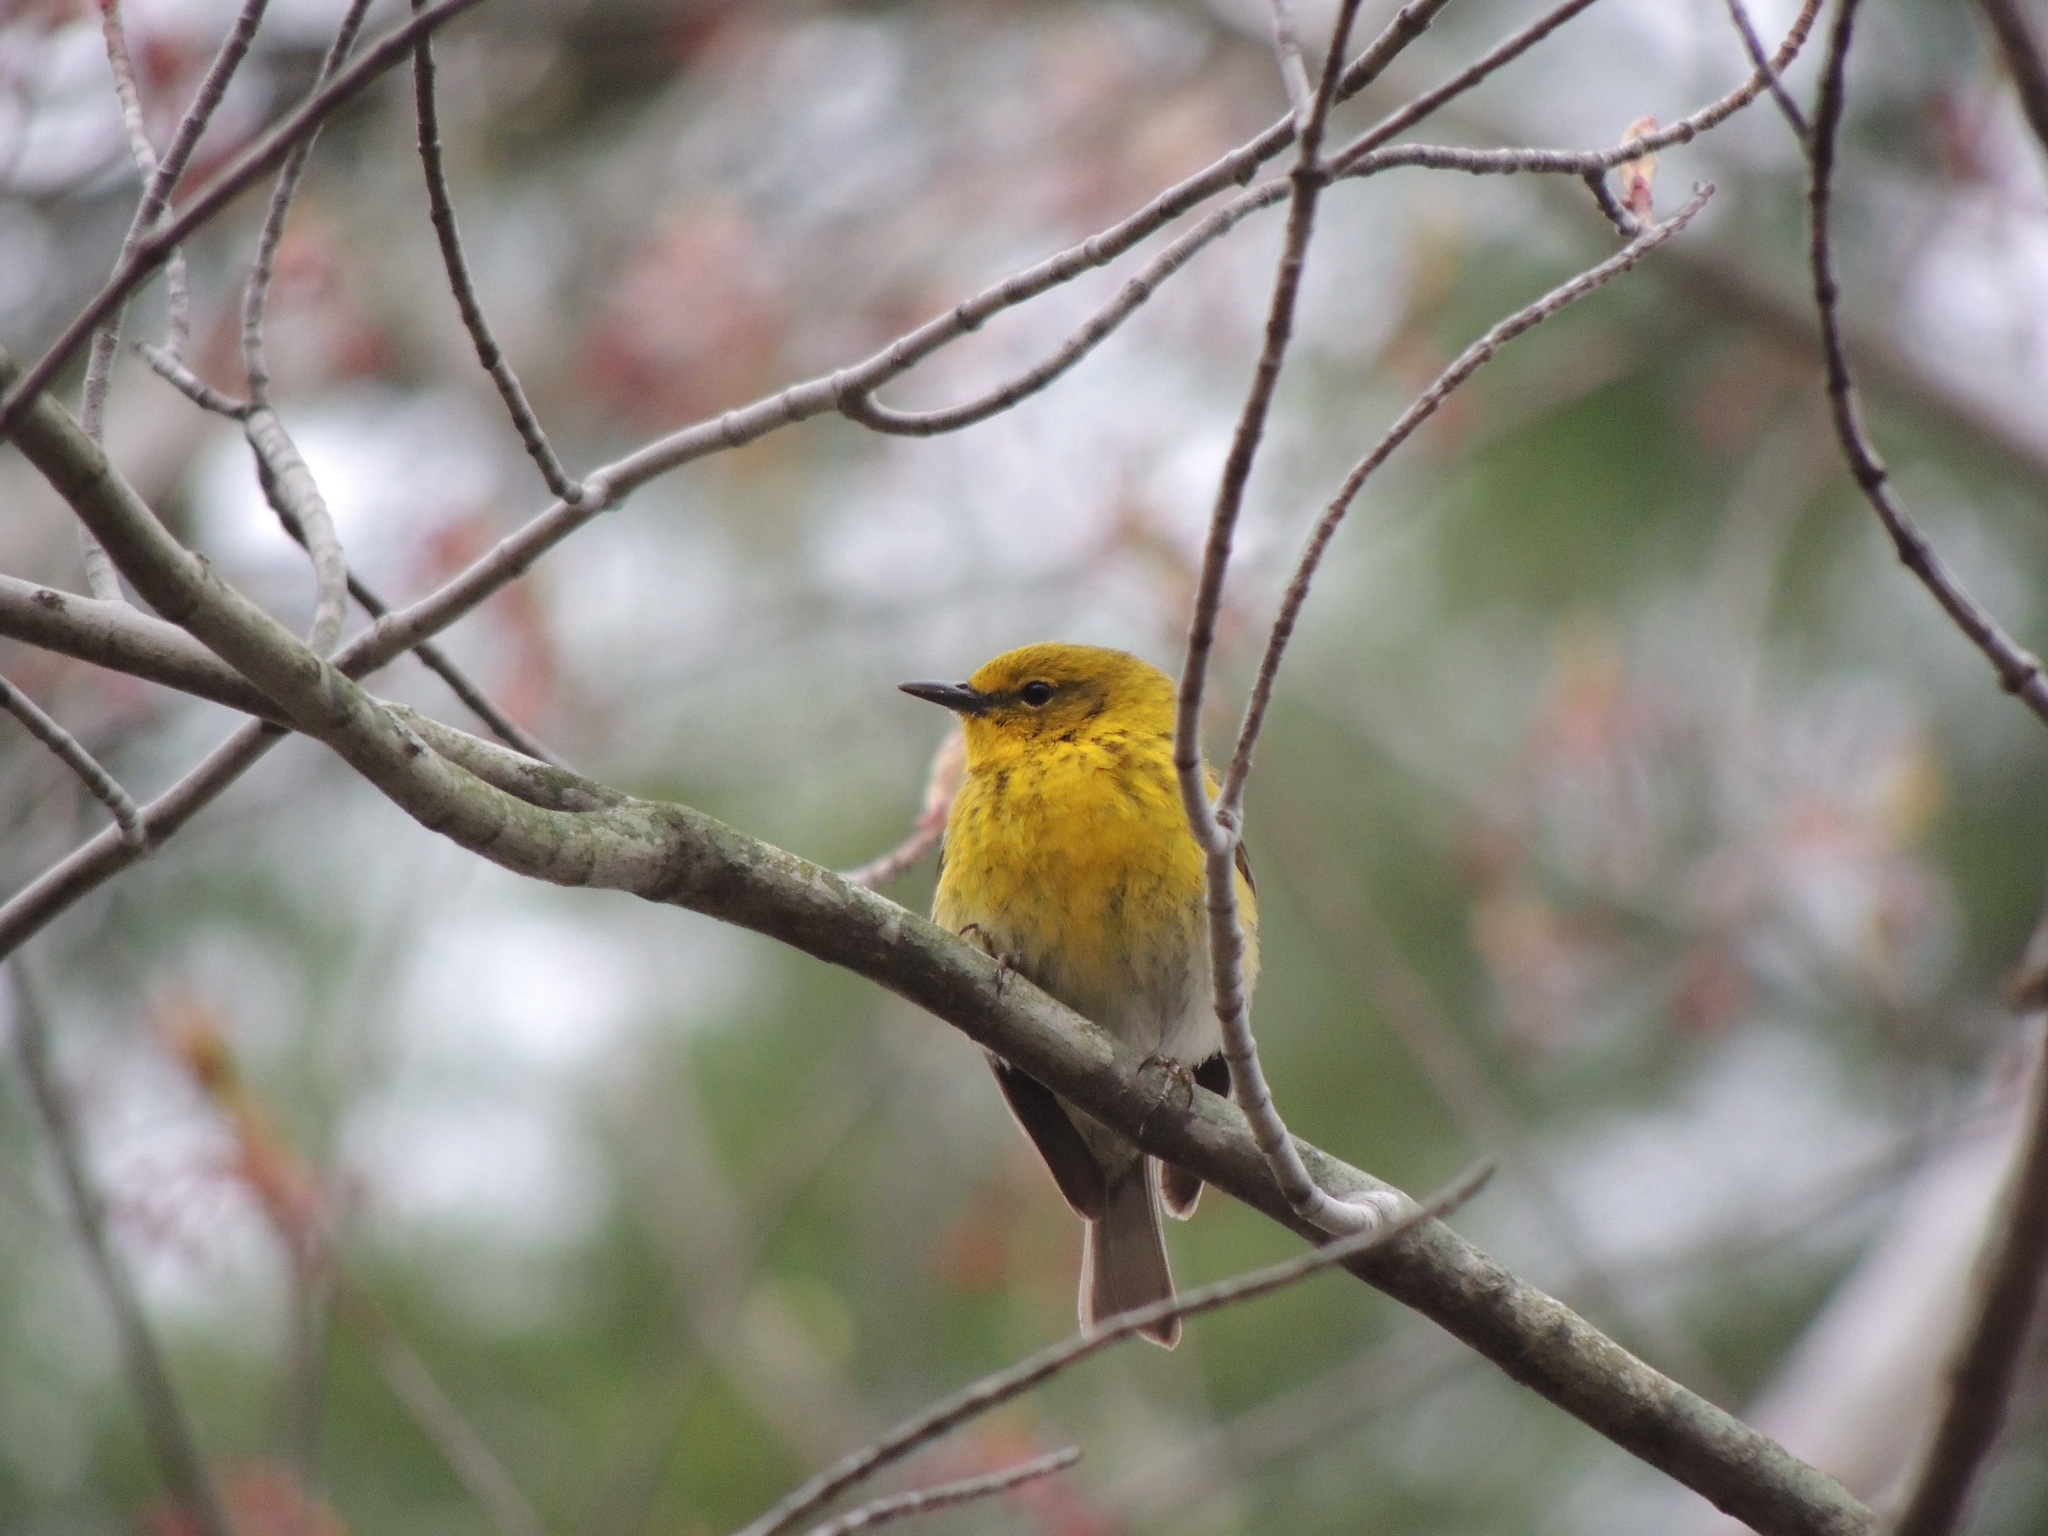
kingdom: Animalia
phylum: Chordata
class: Aves
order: Passeriformes
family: Parulidae
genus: Setophaga
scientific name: Setophaga pinus
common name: Pine warbler
